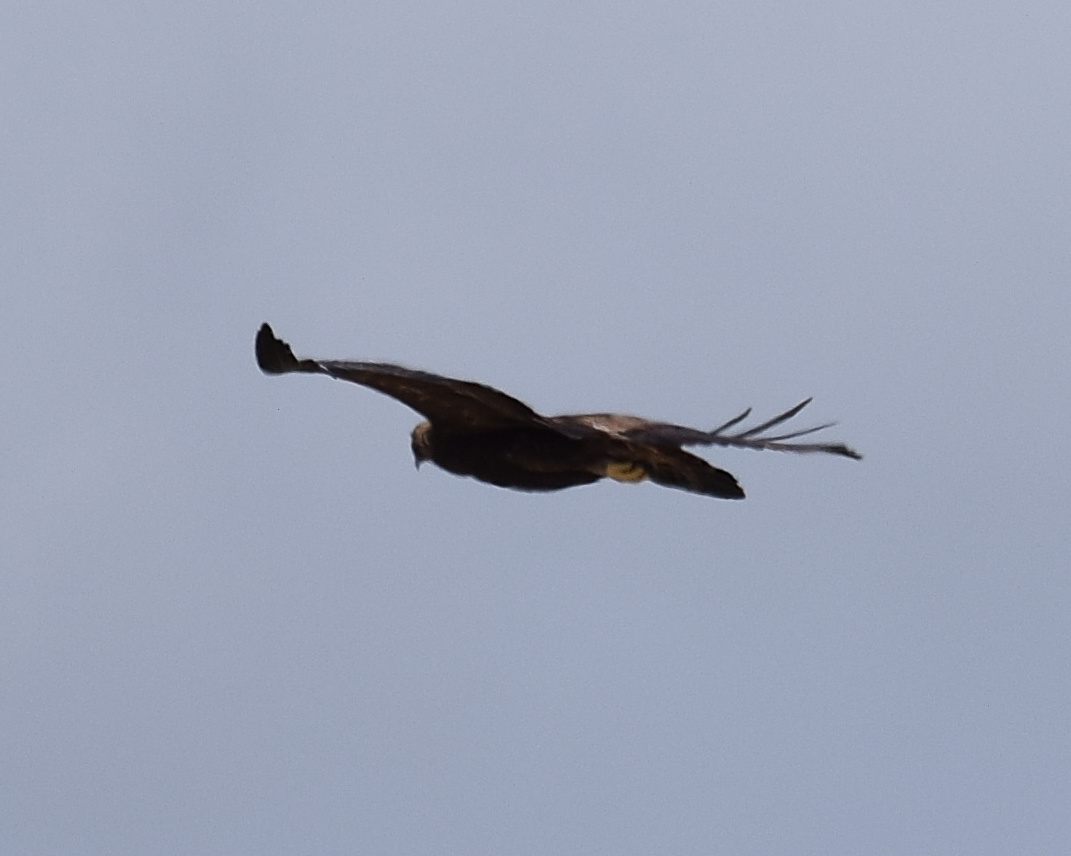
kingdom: Animalia
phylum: Chordata
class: Aves
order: Accipitriformes
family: Accipitridae
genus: Aquila
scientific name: Aquila chrysaetos
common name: Golden eagle
